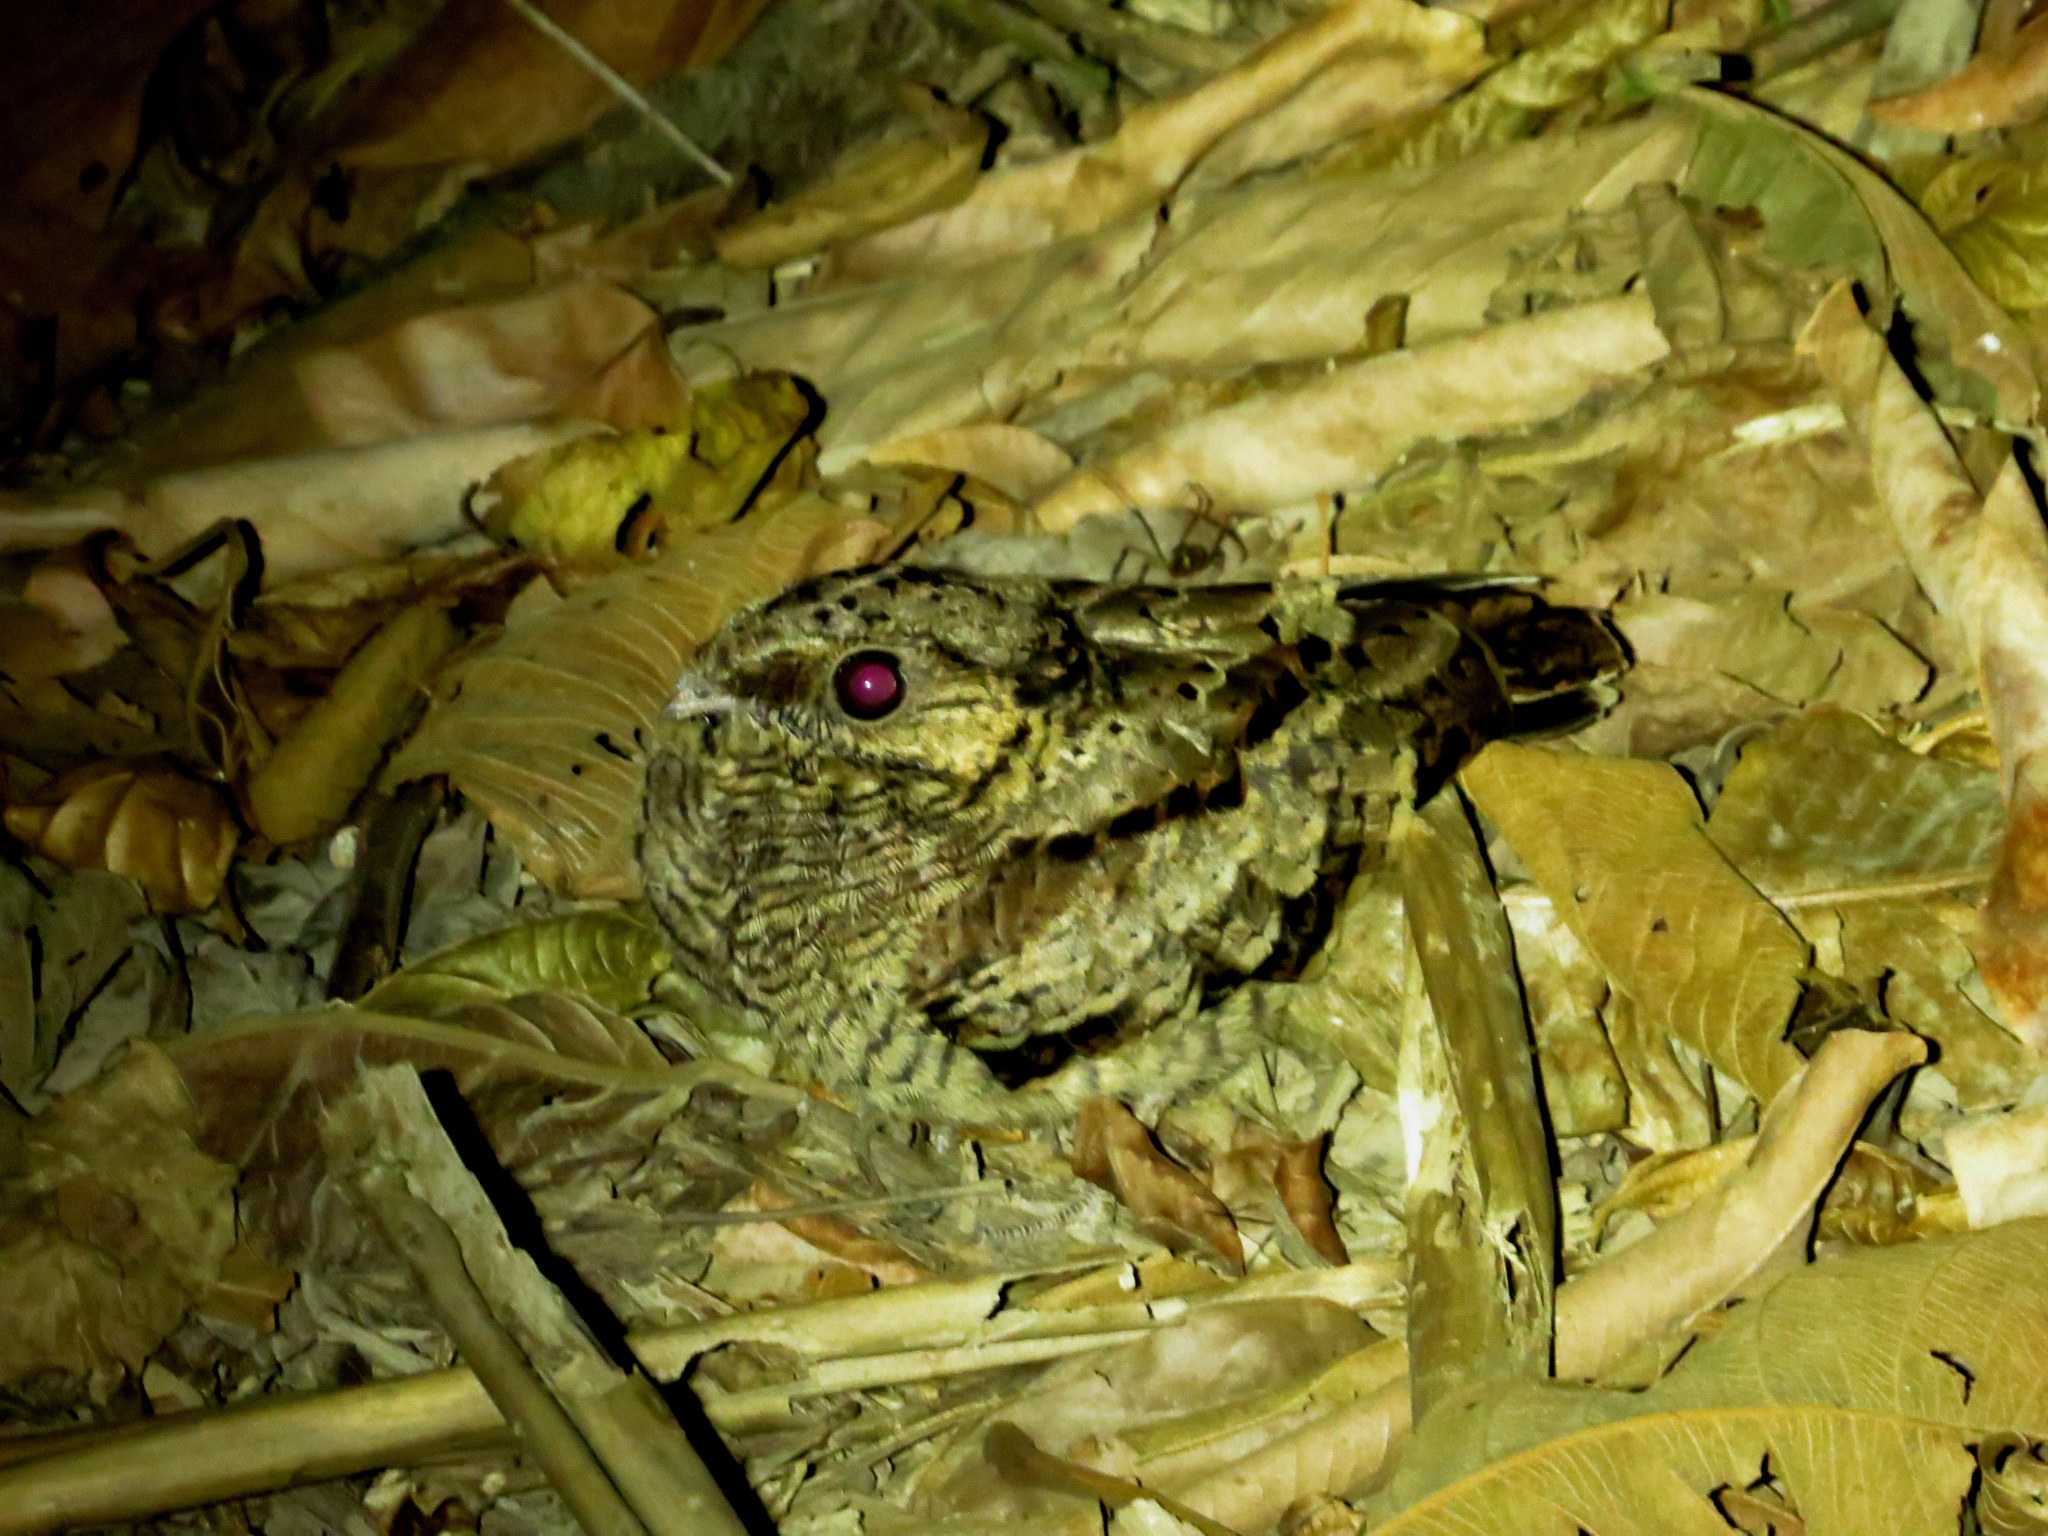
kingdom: Animalia
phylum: Chordata
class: Aves
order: Caprimulgiformes
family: Caprimulgidae
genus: Nyctidromus
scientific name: Nyctidromus albicollis
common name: Pauraque
